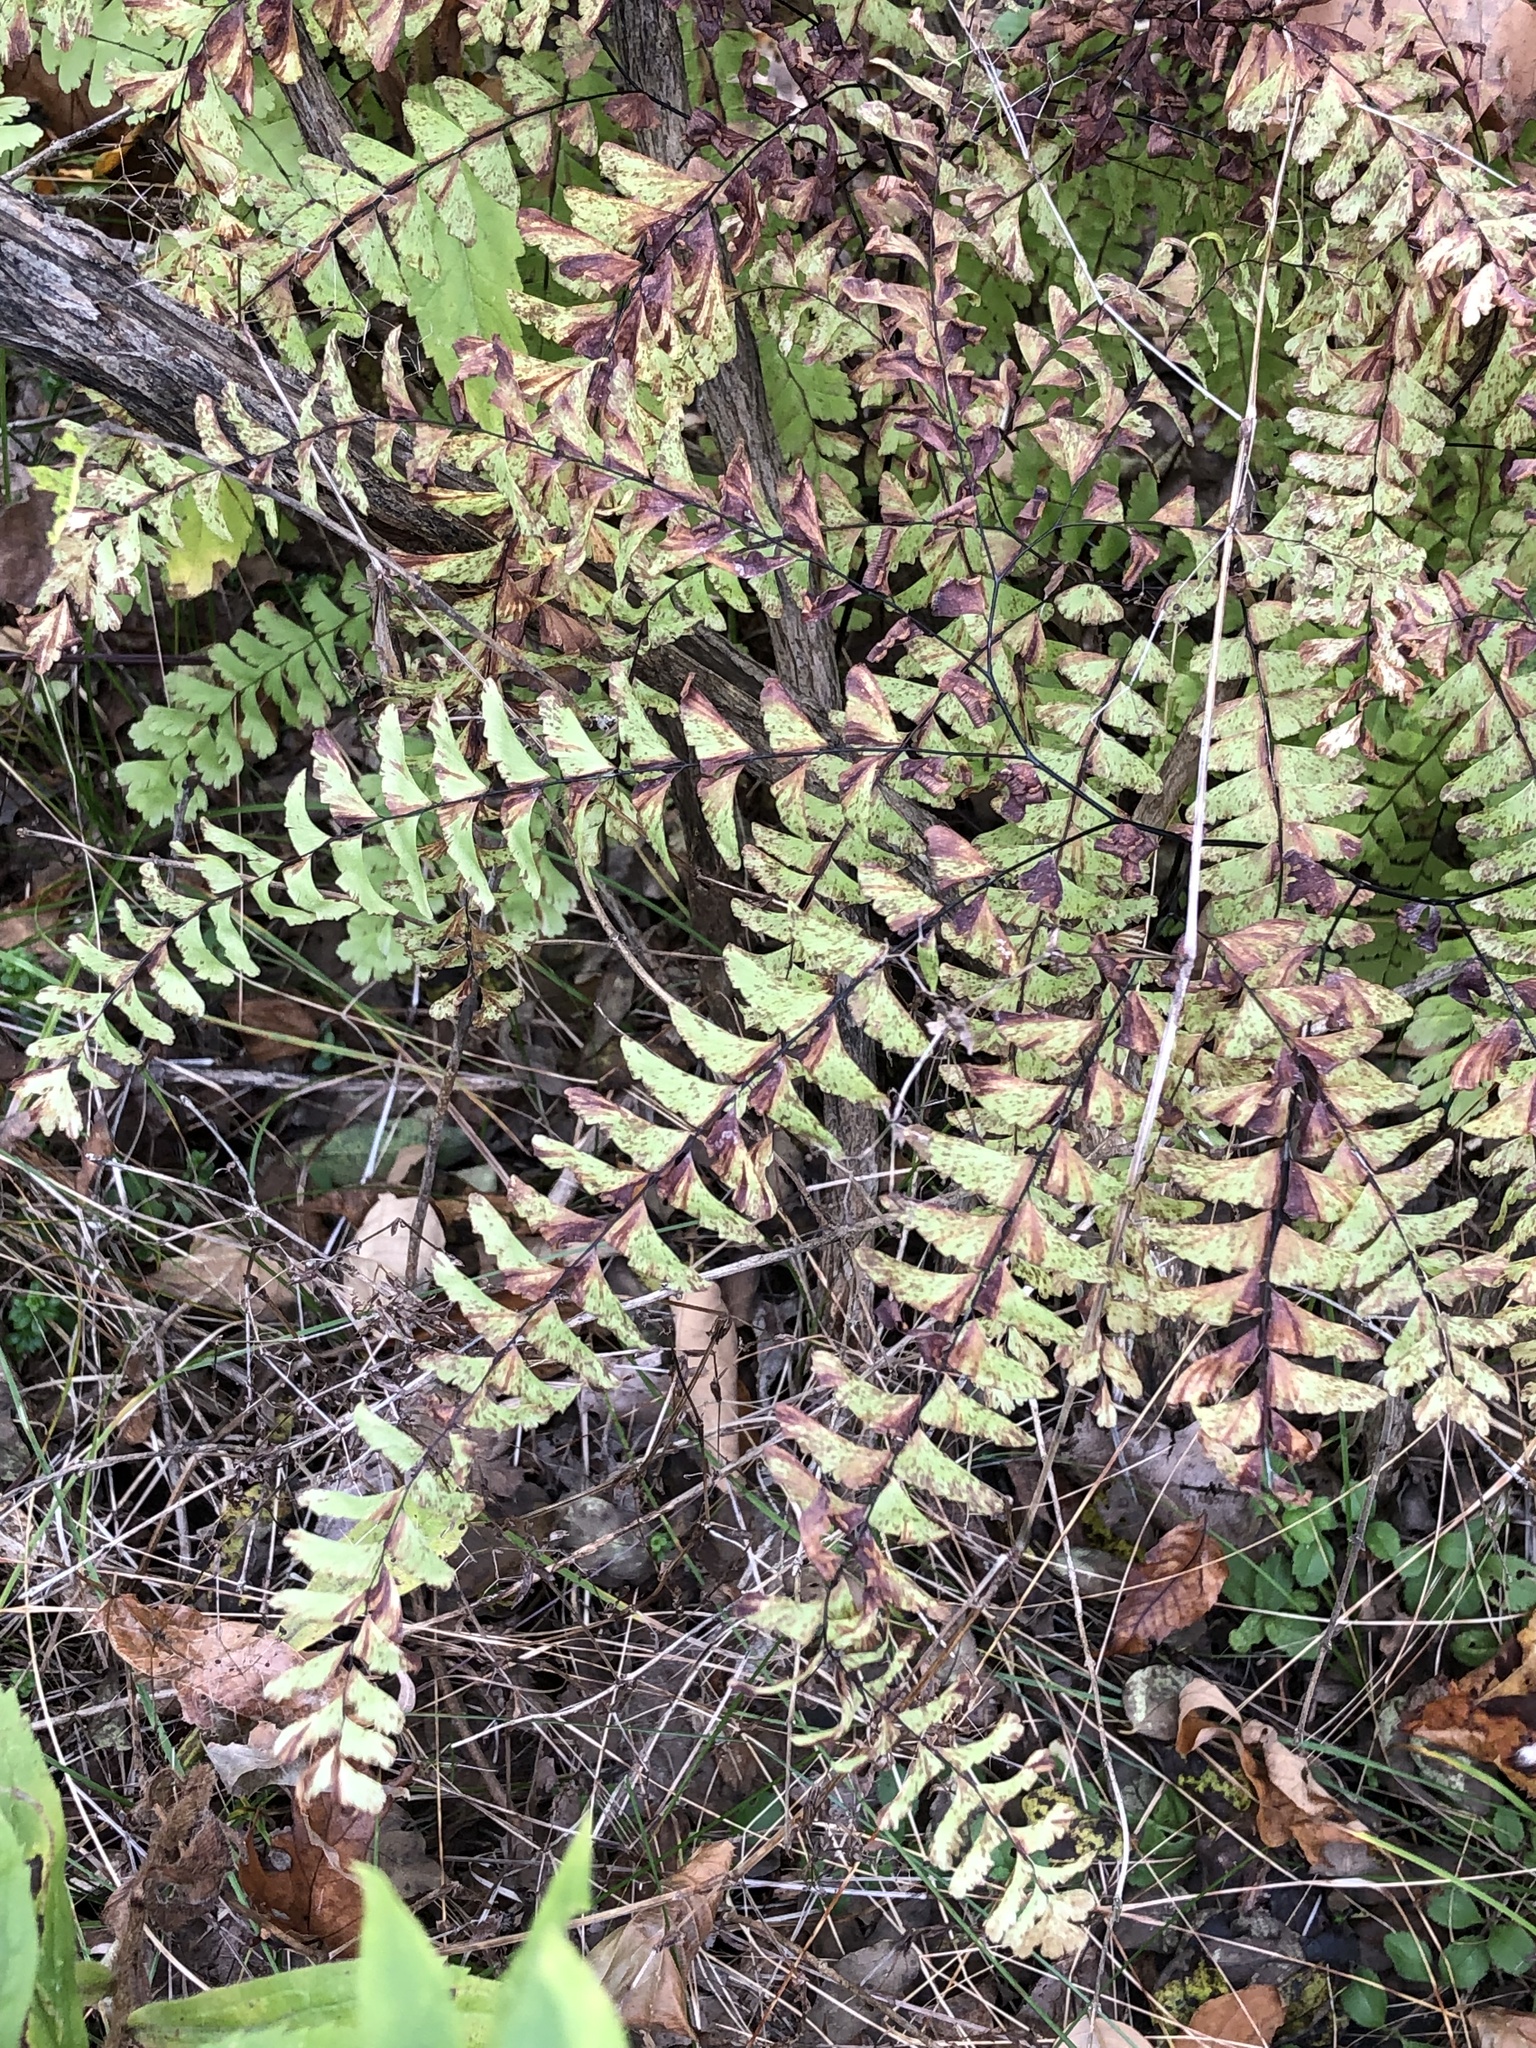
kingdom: Plantae
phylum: Tracheophyta
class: Polypodiopsida
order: Polypodiales
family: Pteridaceae
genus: Adiantum
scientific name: Adiantum pedatum
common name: Five-finger fern
